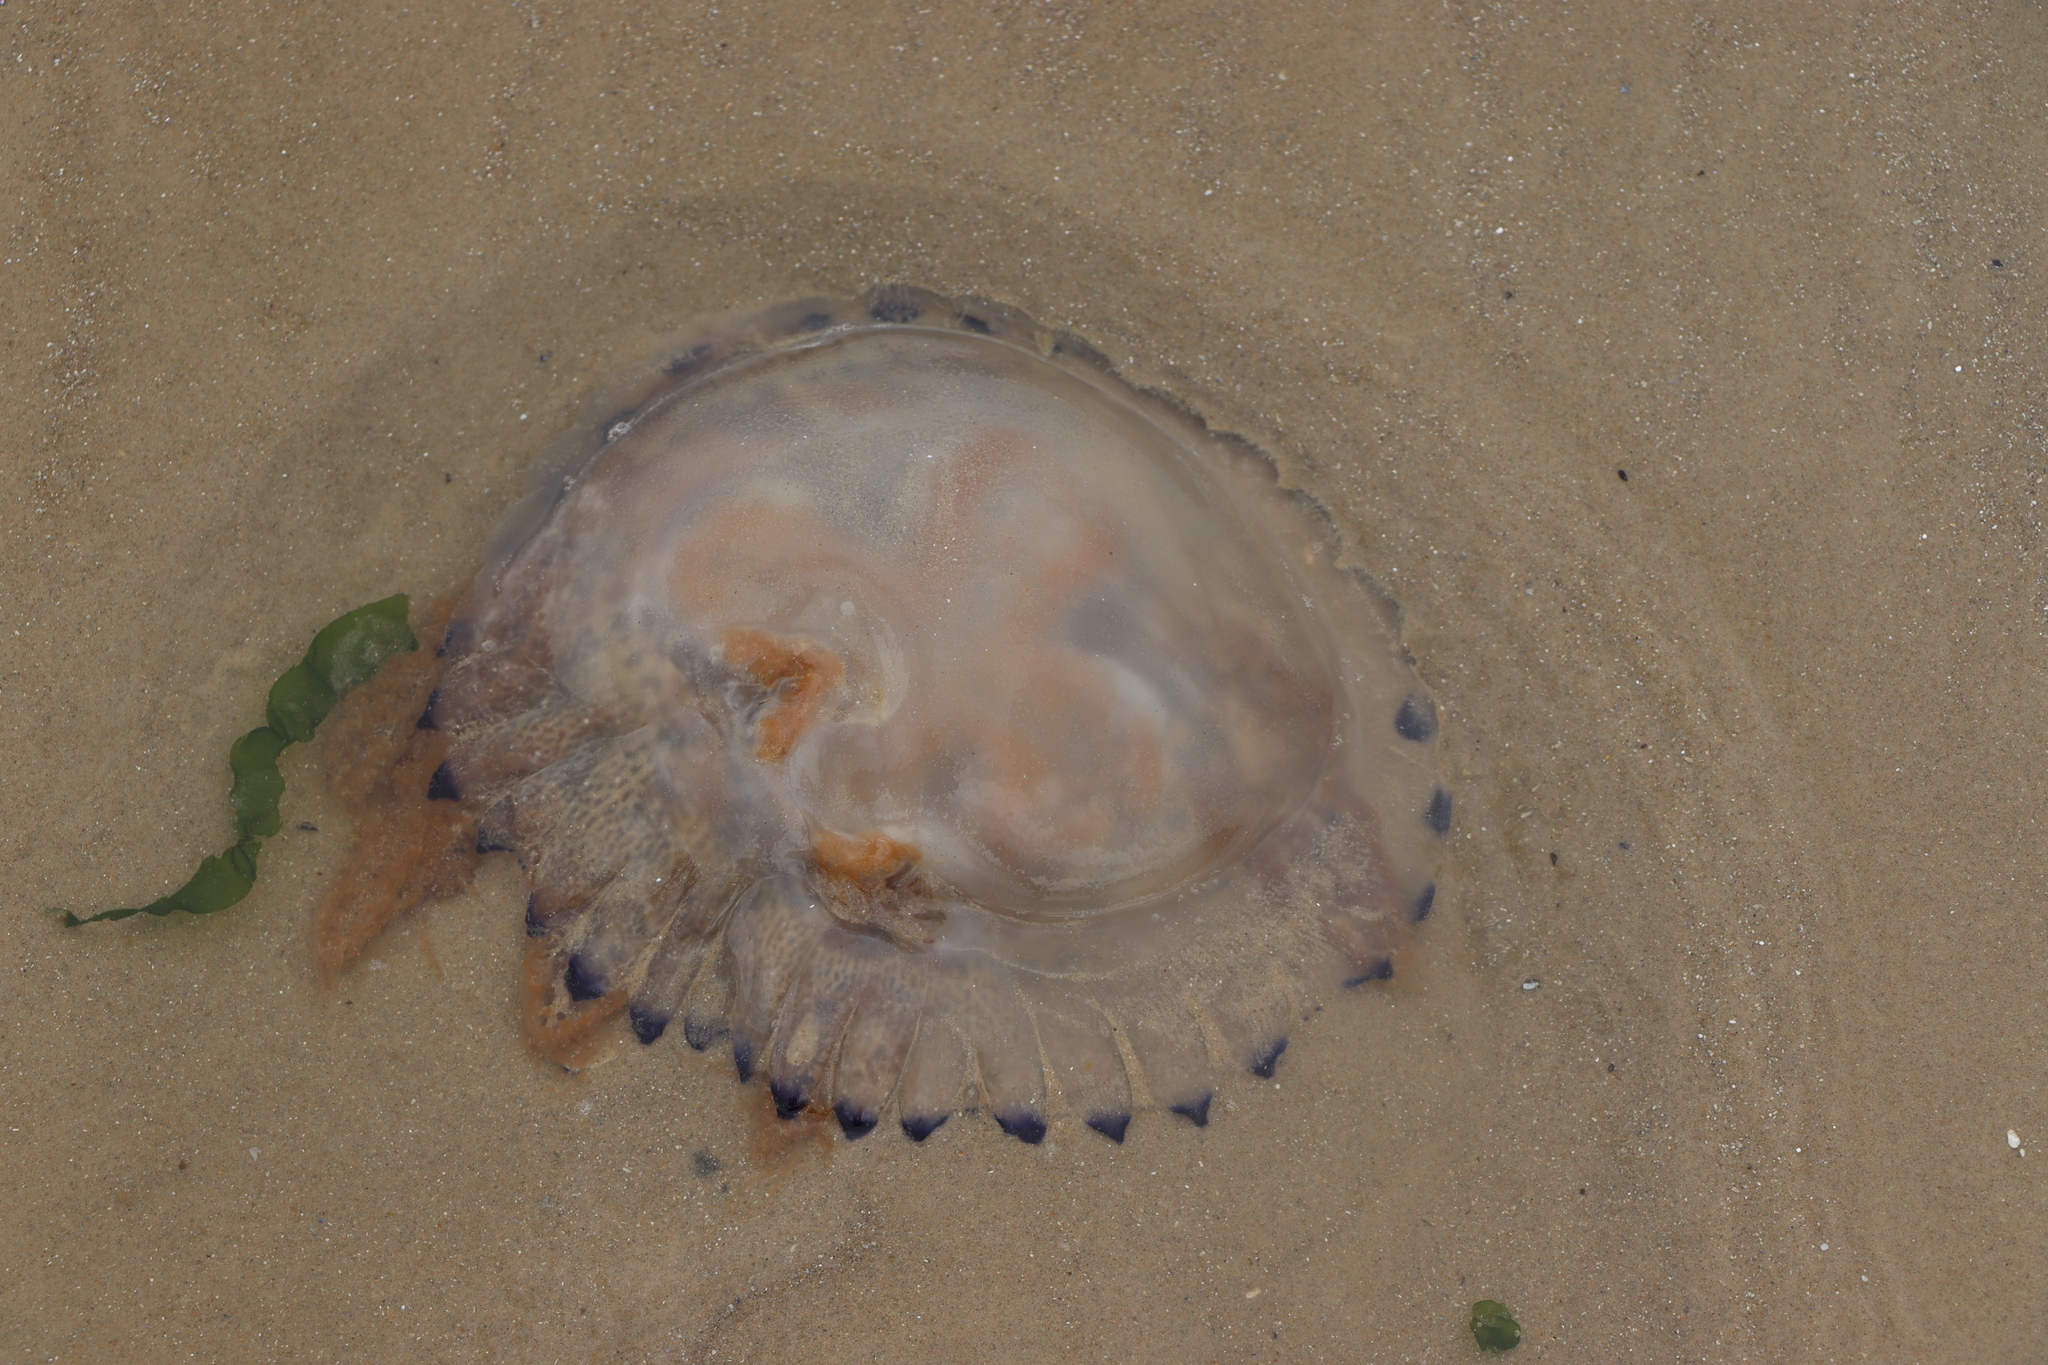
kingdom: Animalia
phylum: Cnidaria
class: Scyphozoa
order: Rhizostomeae
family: Lychnorhizidae
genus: Lychnorhiza
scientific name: Lychnorhiza lucerna
